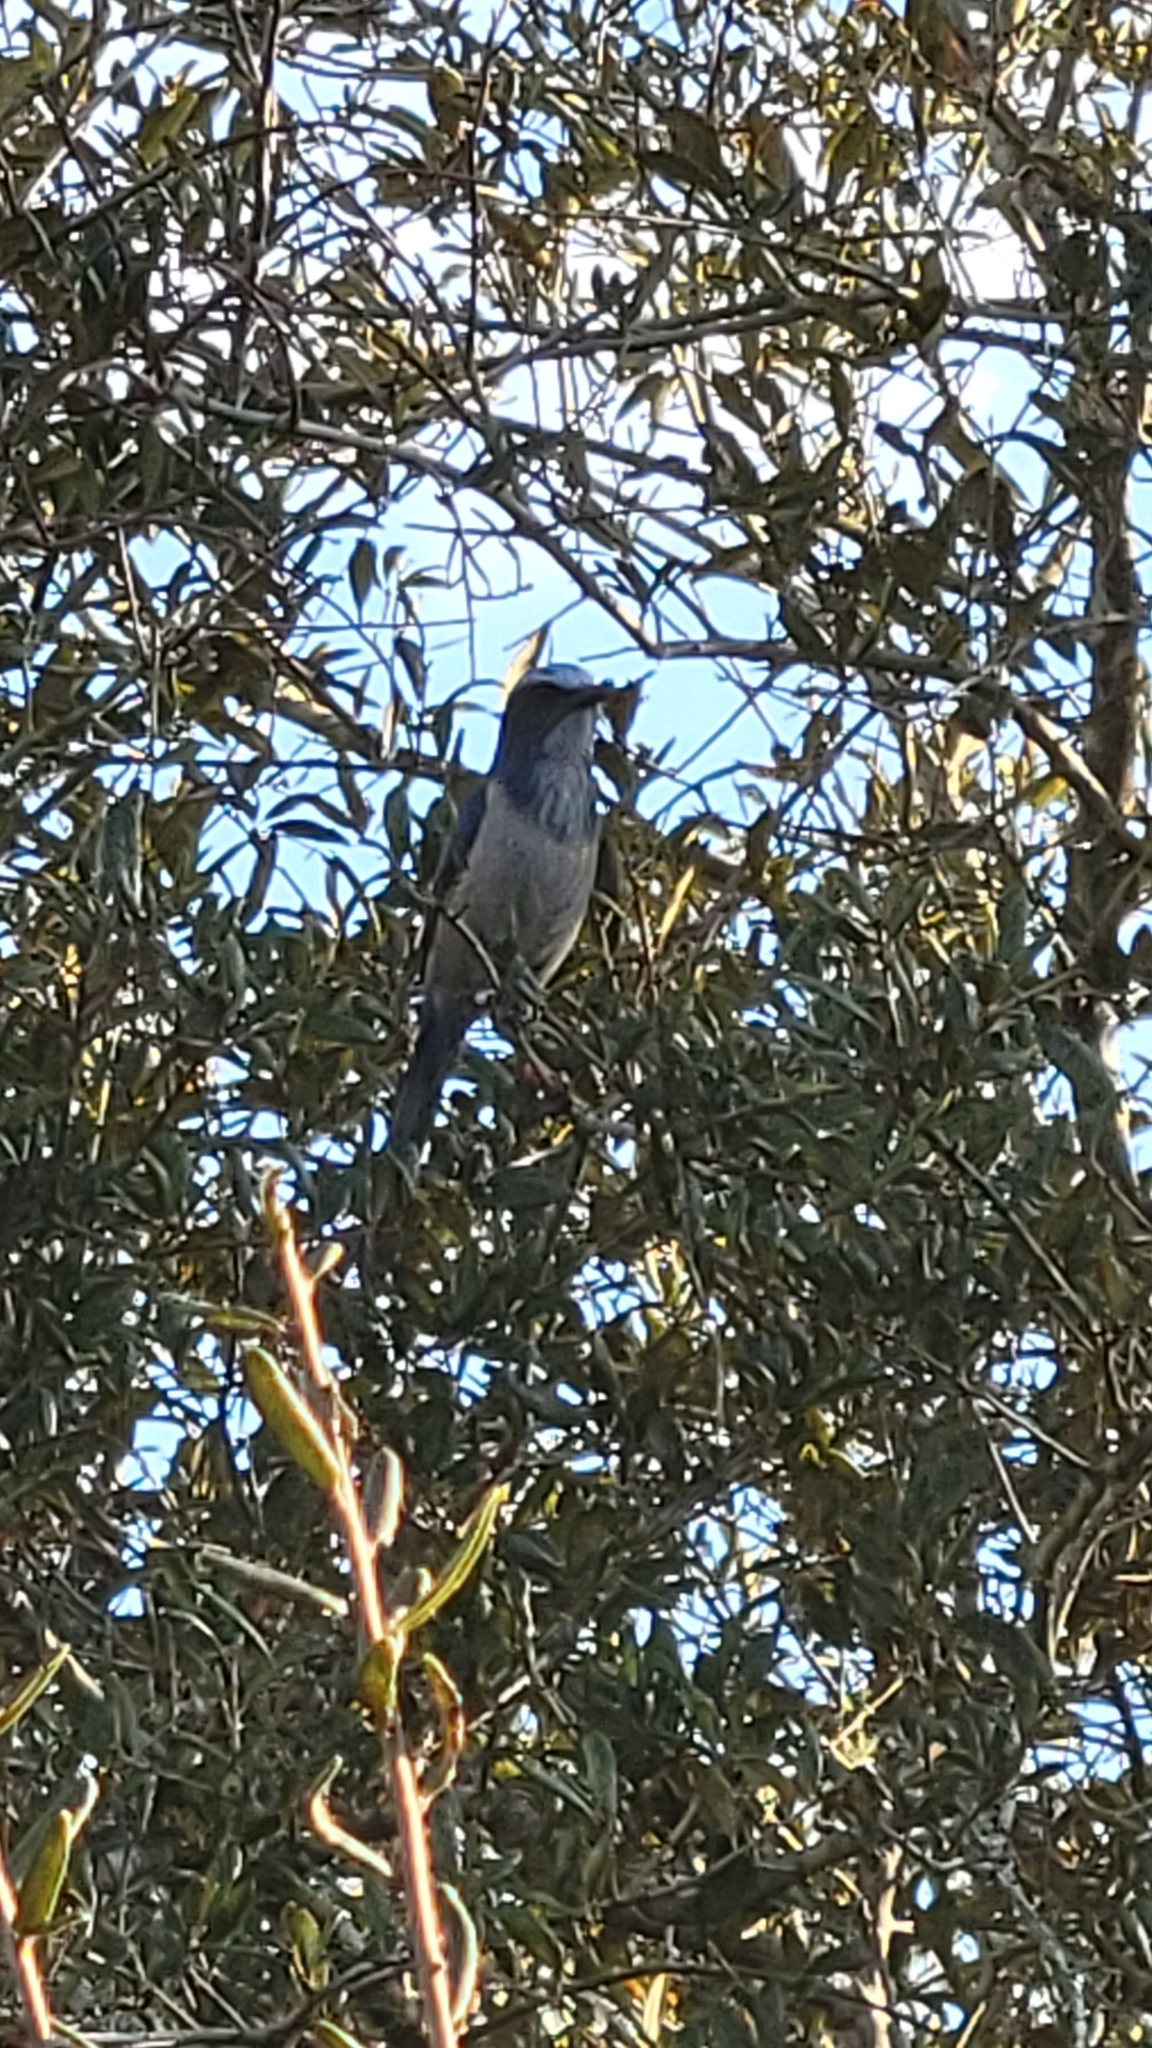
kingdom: Animalia
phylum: Chordata
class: Aves
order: Passeriformes
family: Corvidae
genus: Aphelocoma
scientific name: Aphelocoma coerulescens
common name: Florida scrub jay
